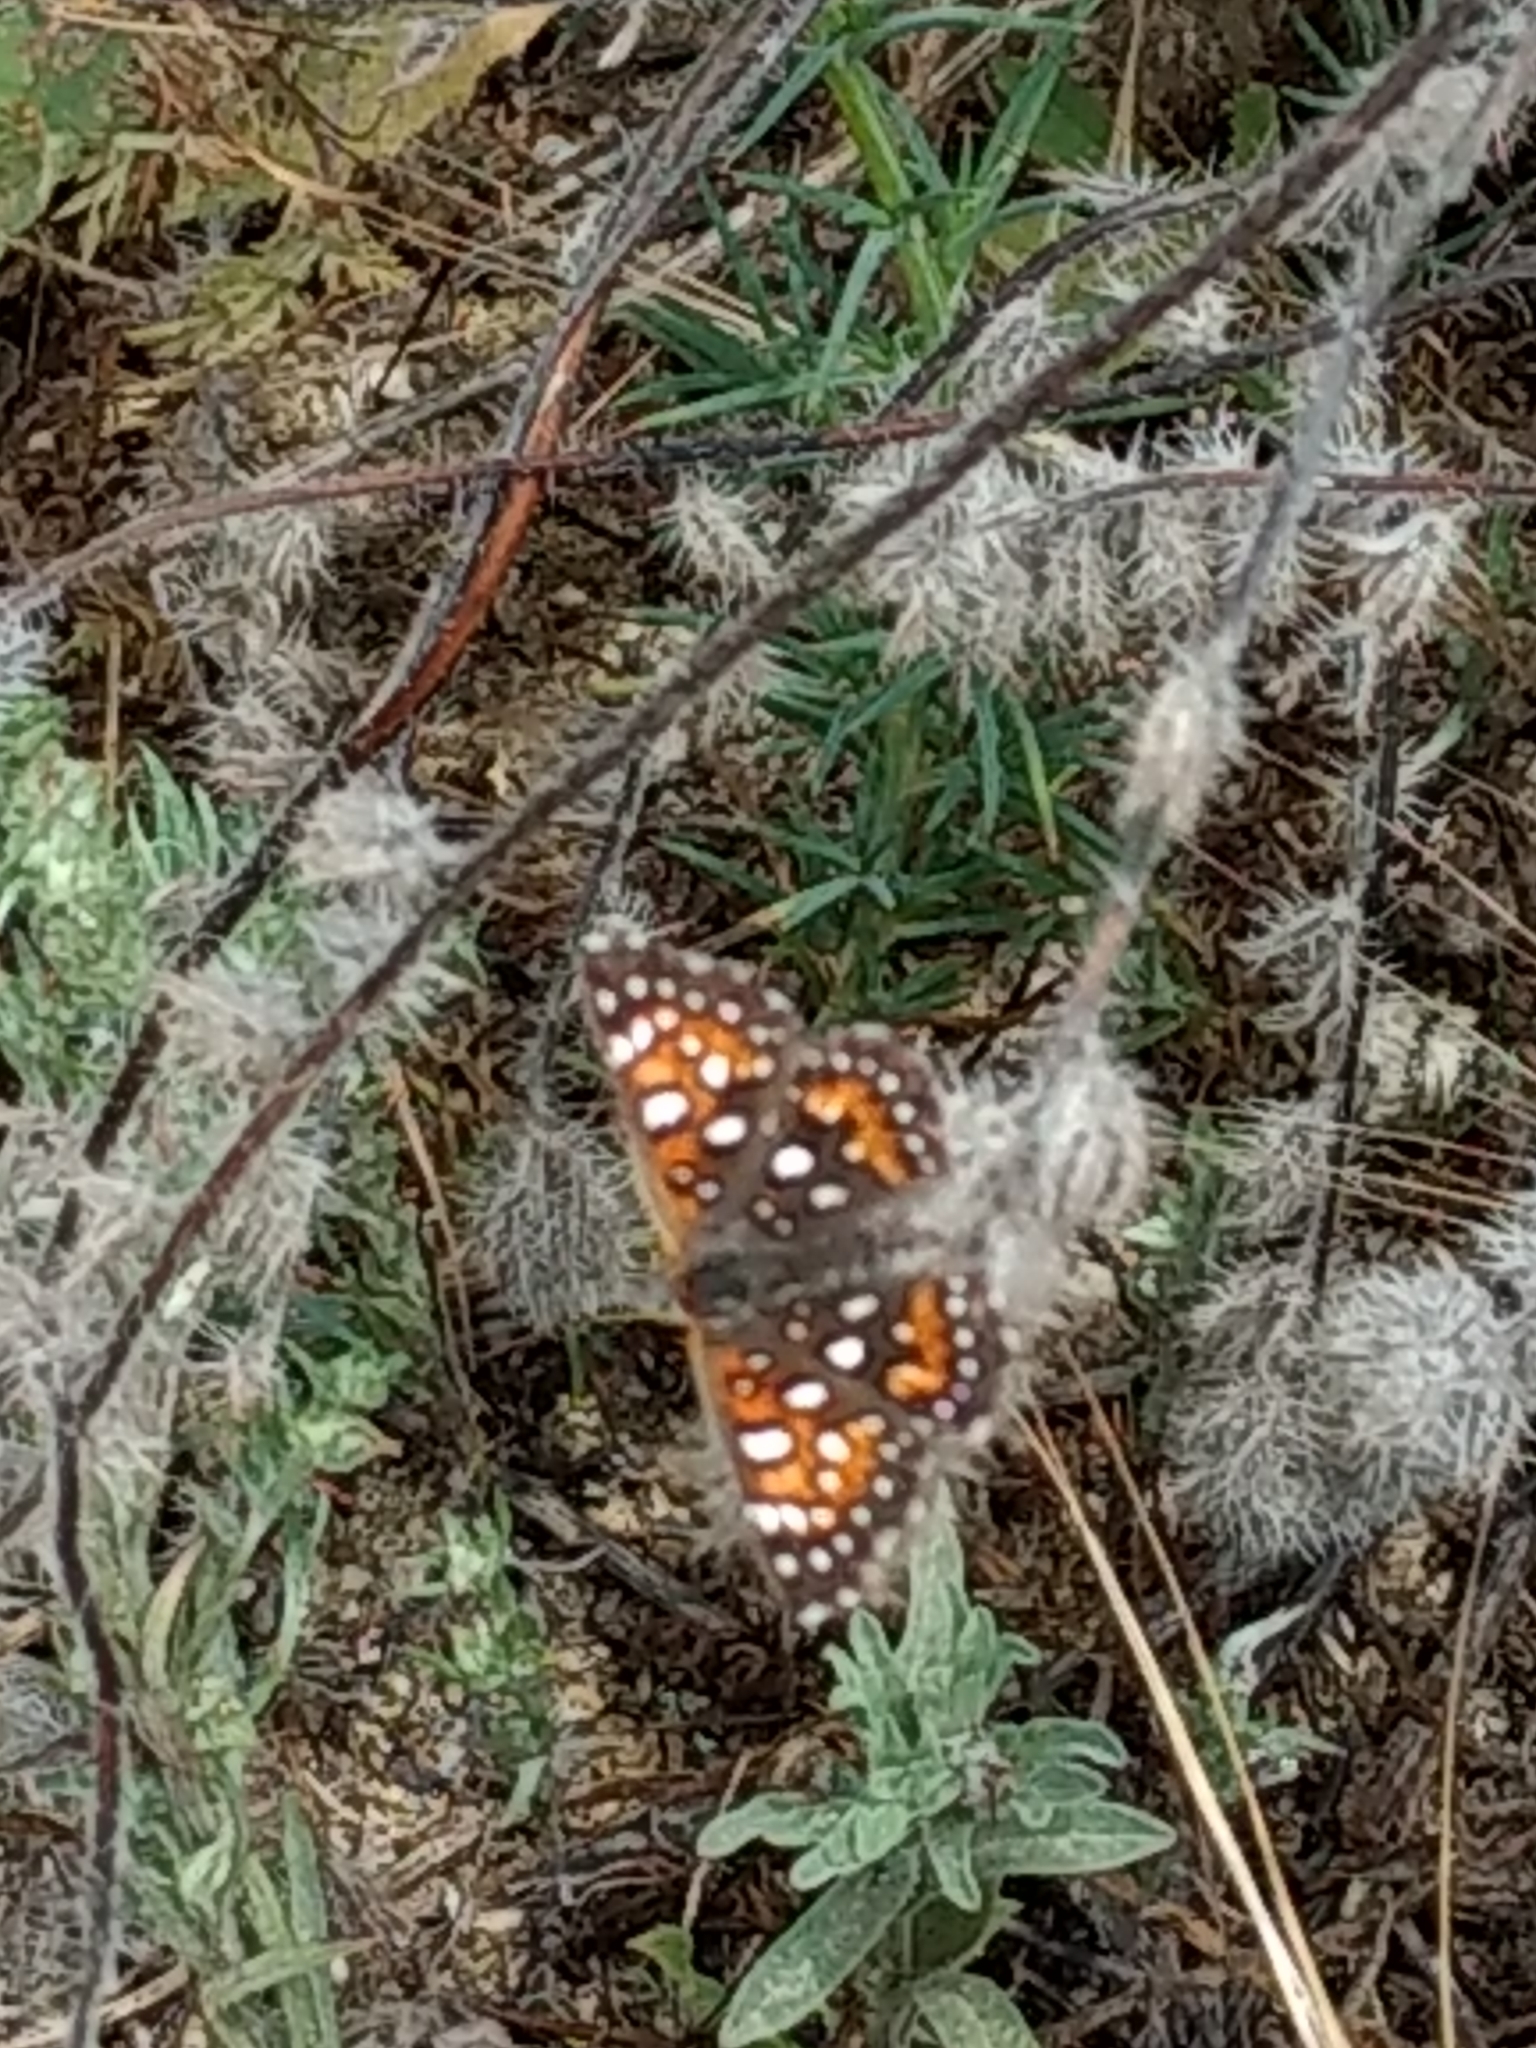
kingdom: Animalia
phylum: Arthropoda
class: Insecta
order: Lepidoptera
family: Riodinidae
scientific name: Riodinidae
